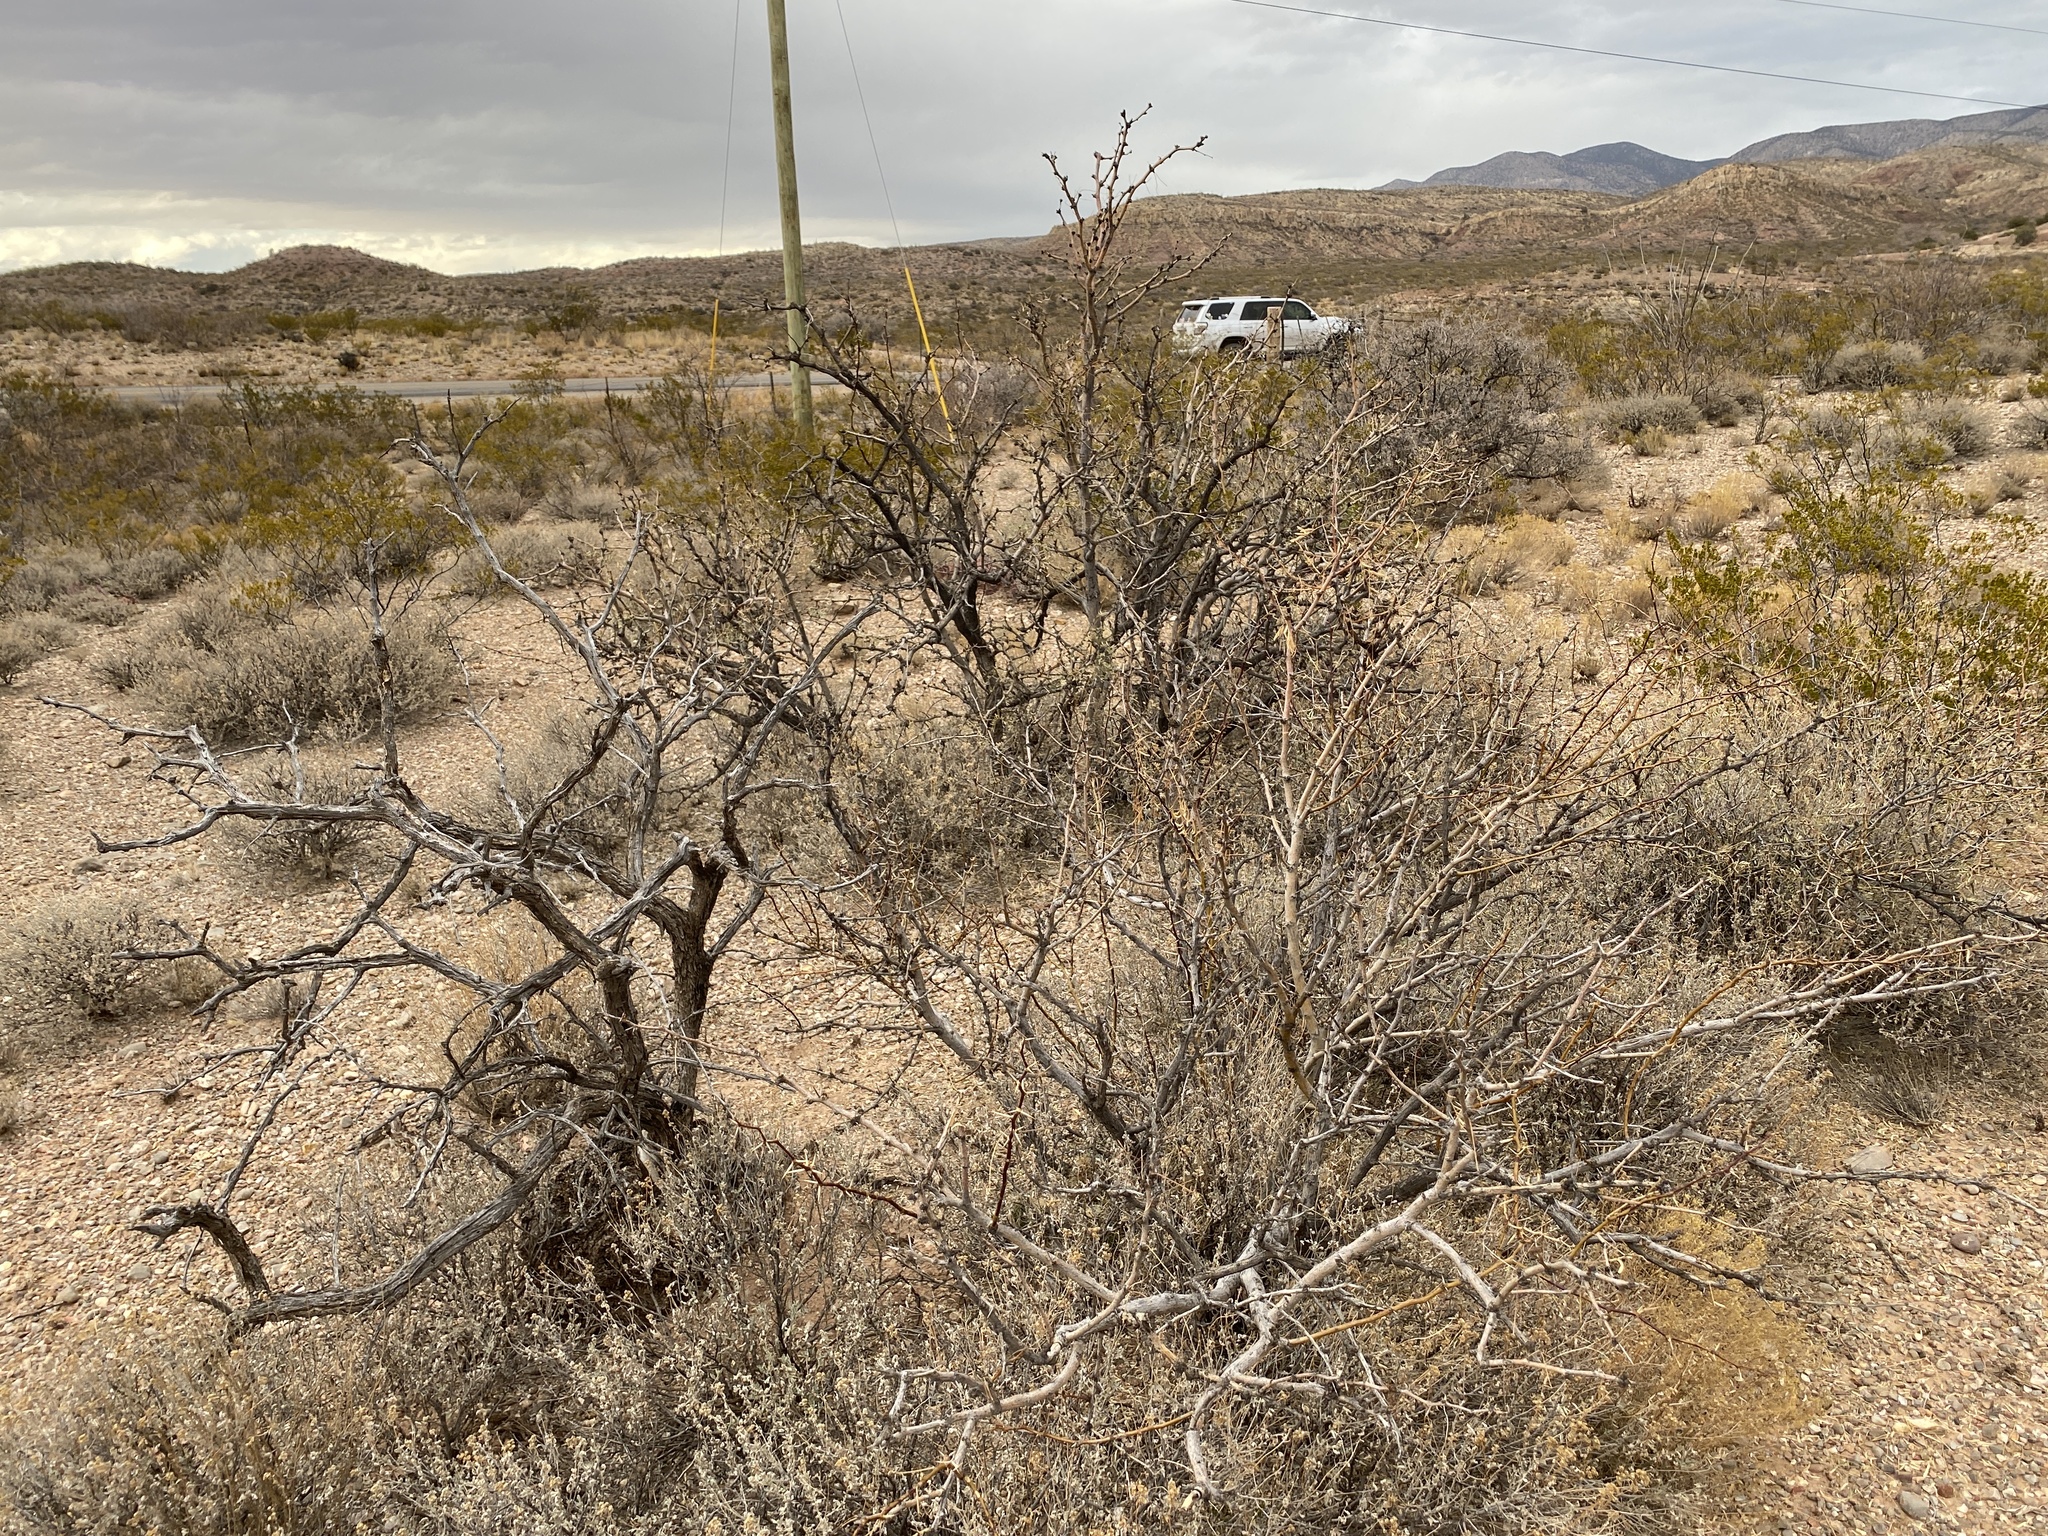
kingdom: Plantae
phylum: Tracheophyta
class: Magnoliopsida
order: Fabales
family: Fabaceae
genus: Prosopis
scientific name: Prosopis glandulosa
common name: Honey mesquite
